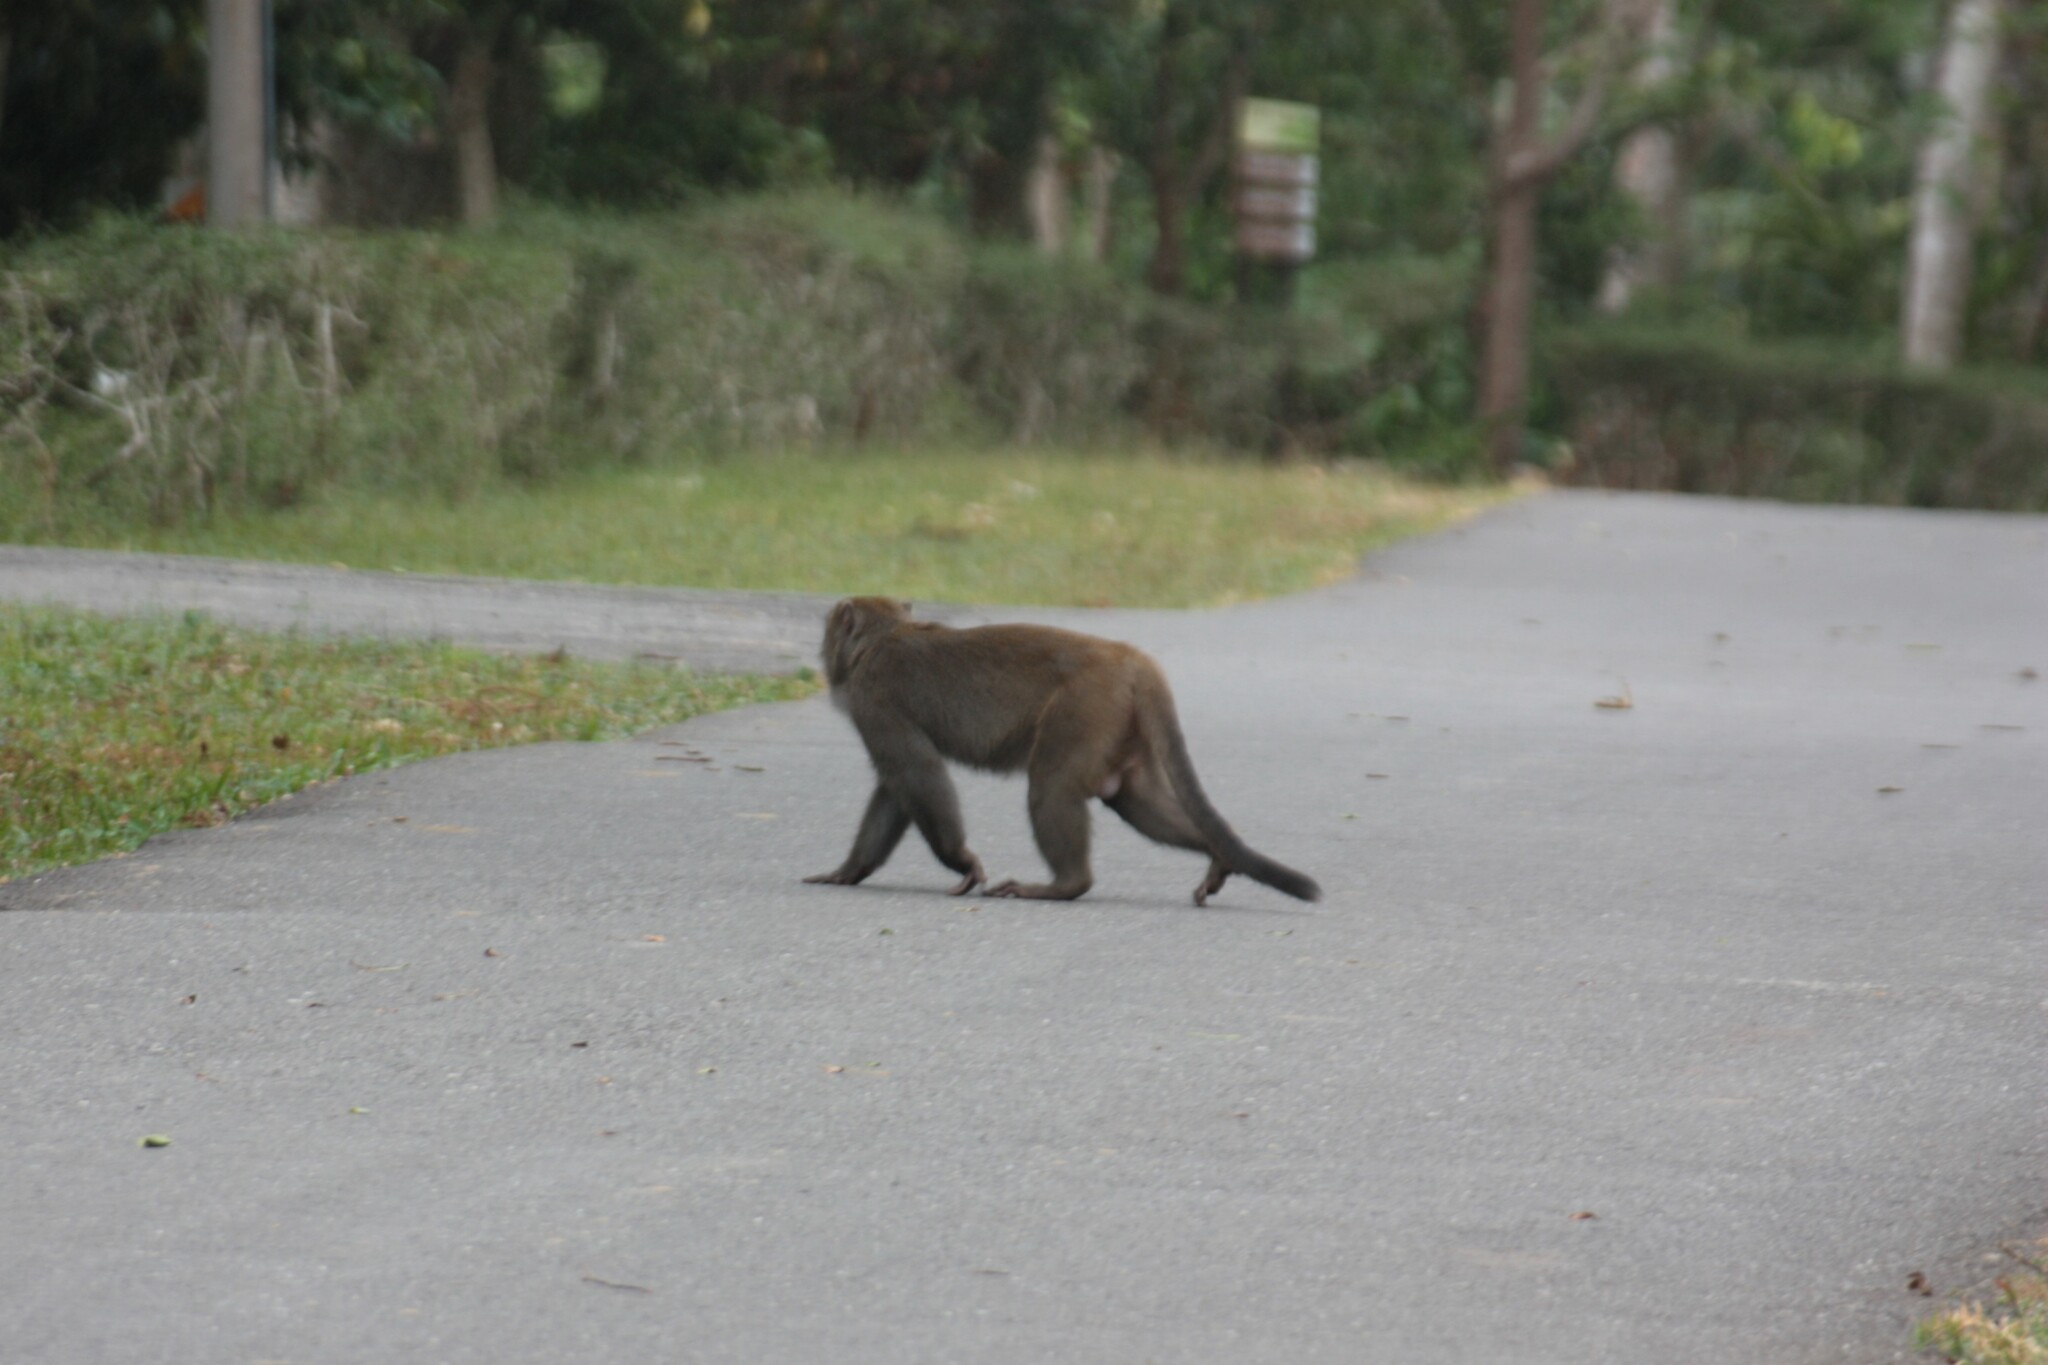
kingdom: Animalia
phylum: Chordata
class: Mammalia
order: Primates
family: Cercopithecidae
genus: Macaca
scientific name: Macaca cyclopis
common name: Formosan rock macaque
